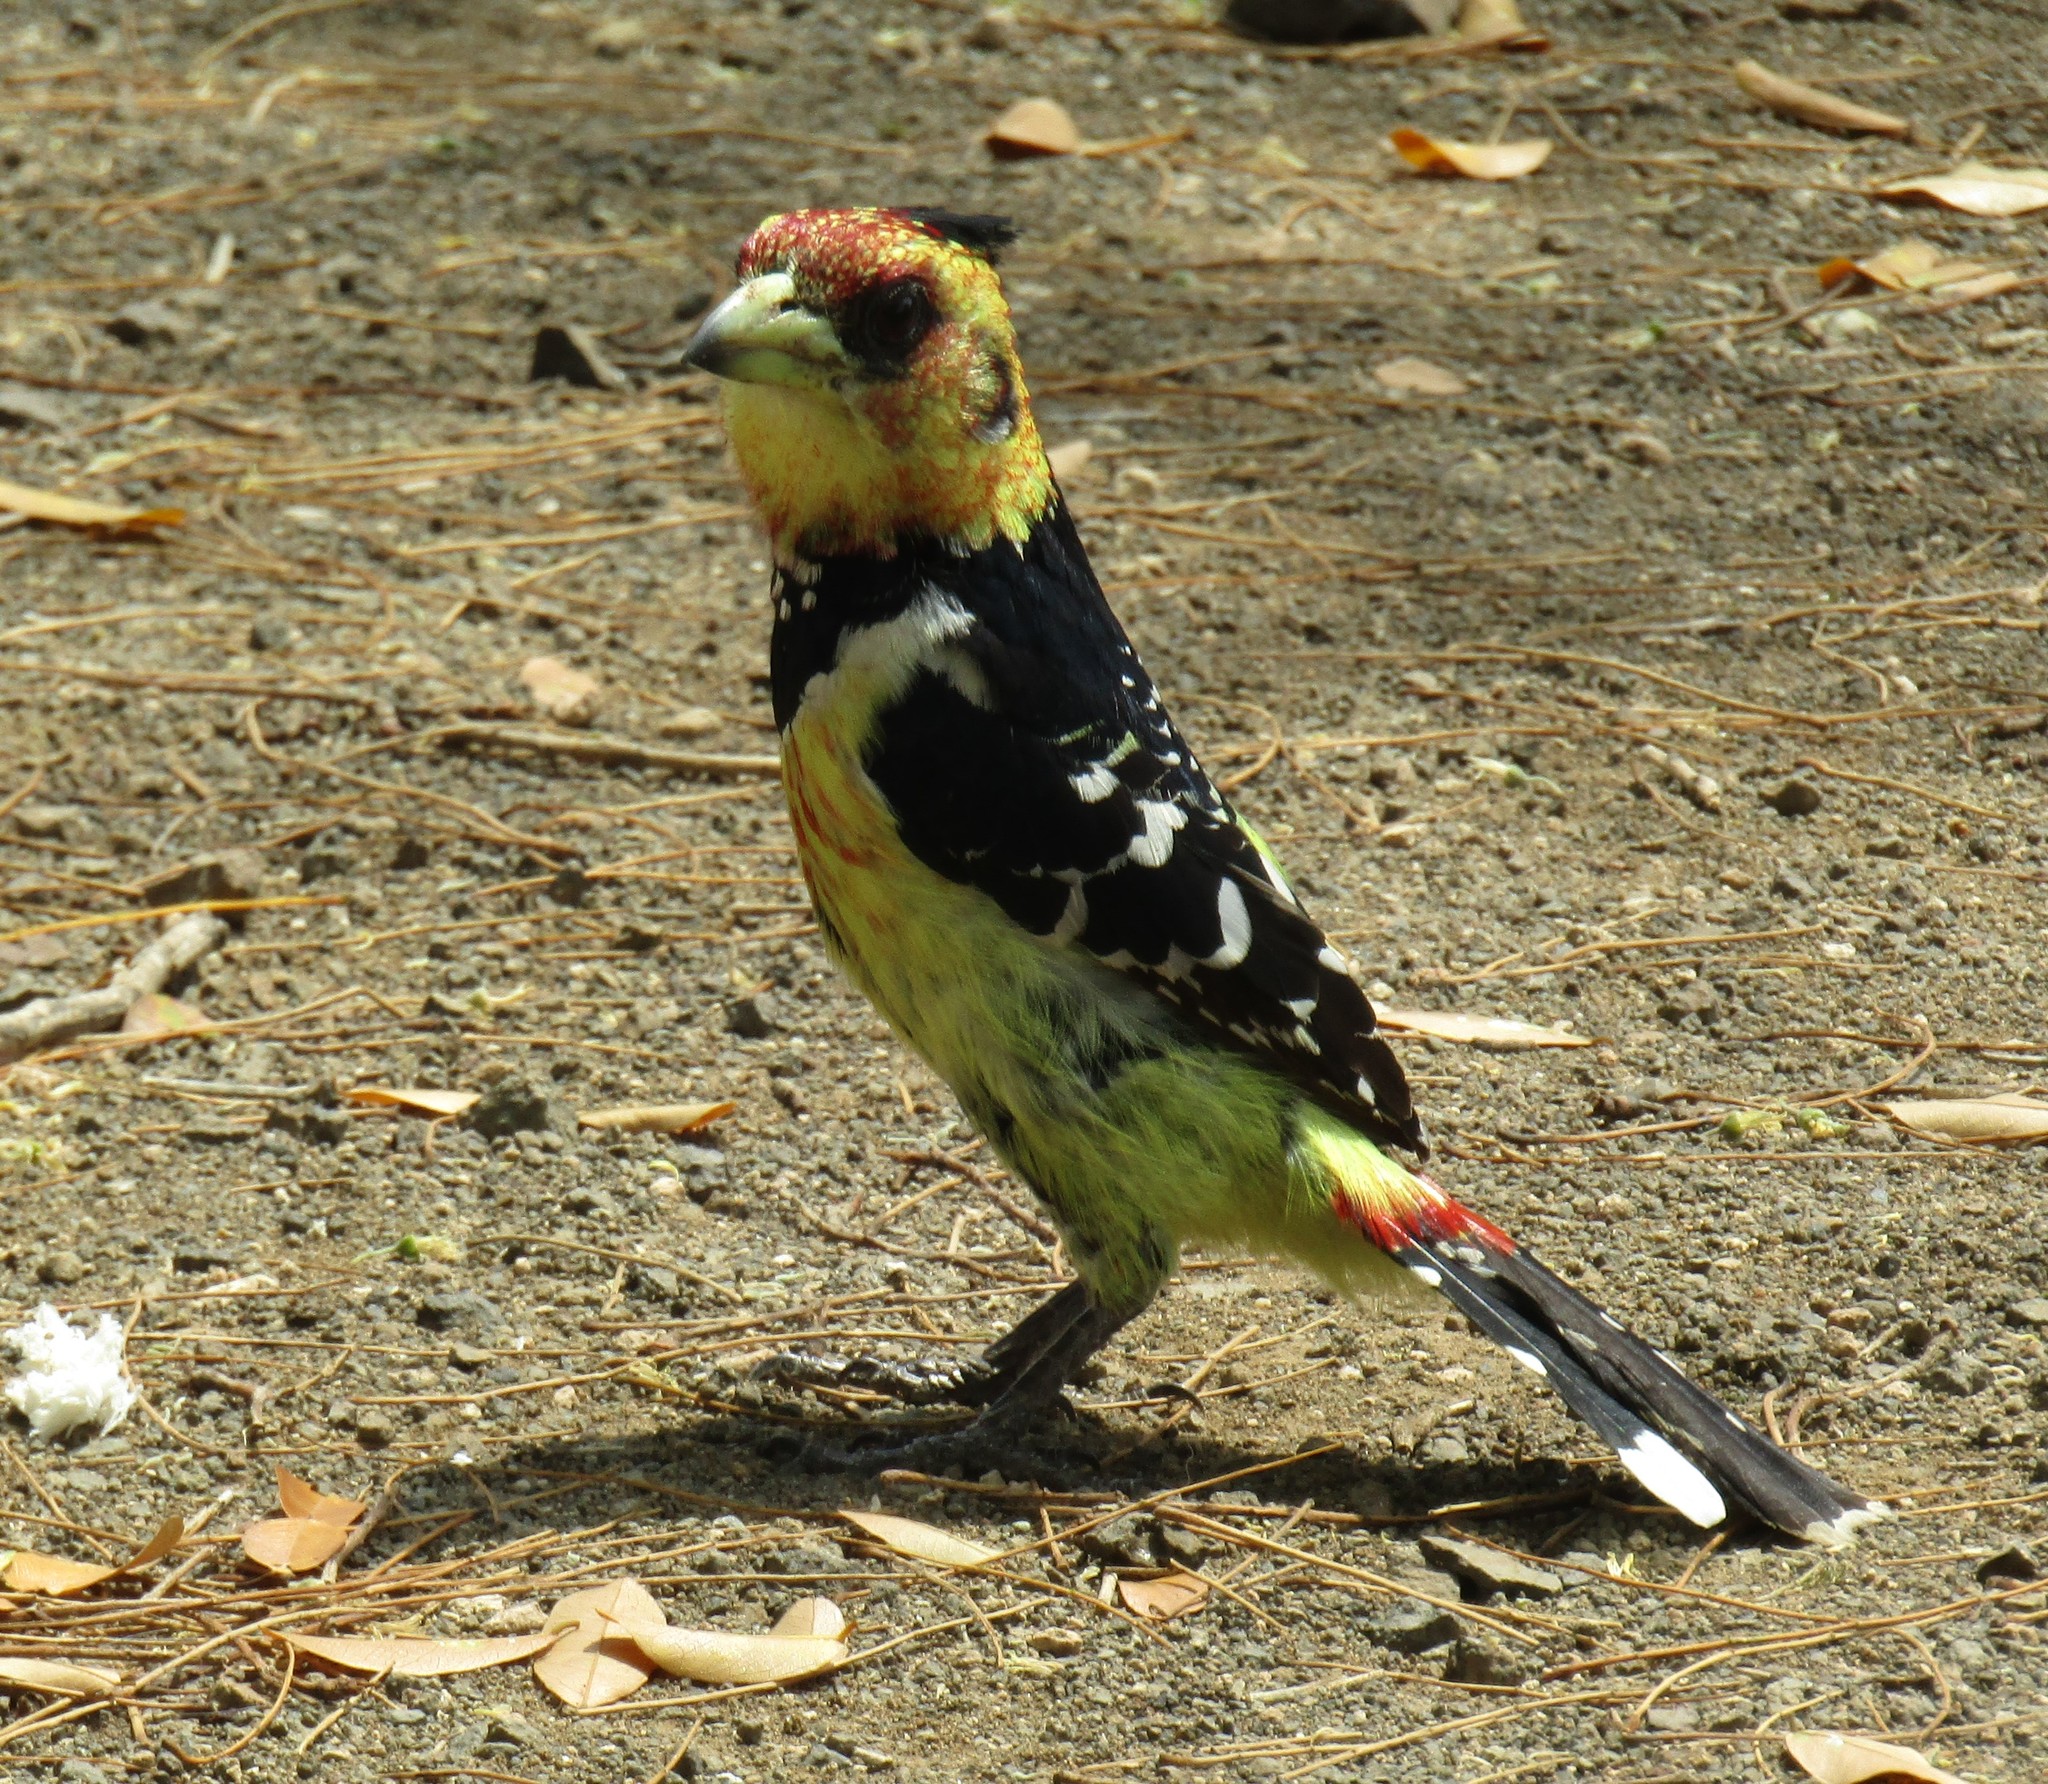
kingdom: Animalia
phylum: Chordata
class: Aves
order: Piciformes
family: Lybiidae
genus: Trachyphonus
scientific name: Trachyphonus vaillantii
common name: Crested barbet
